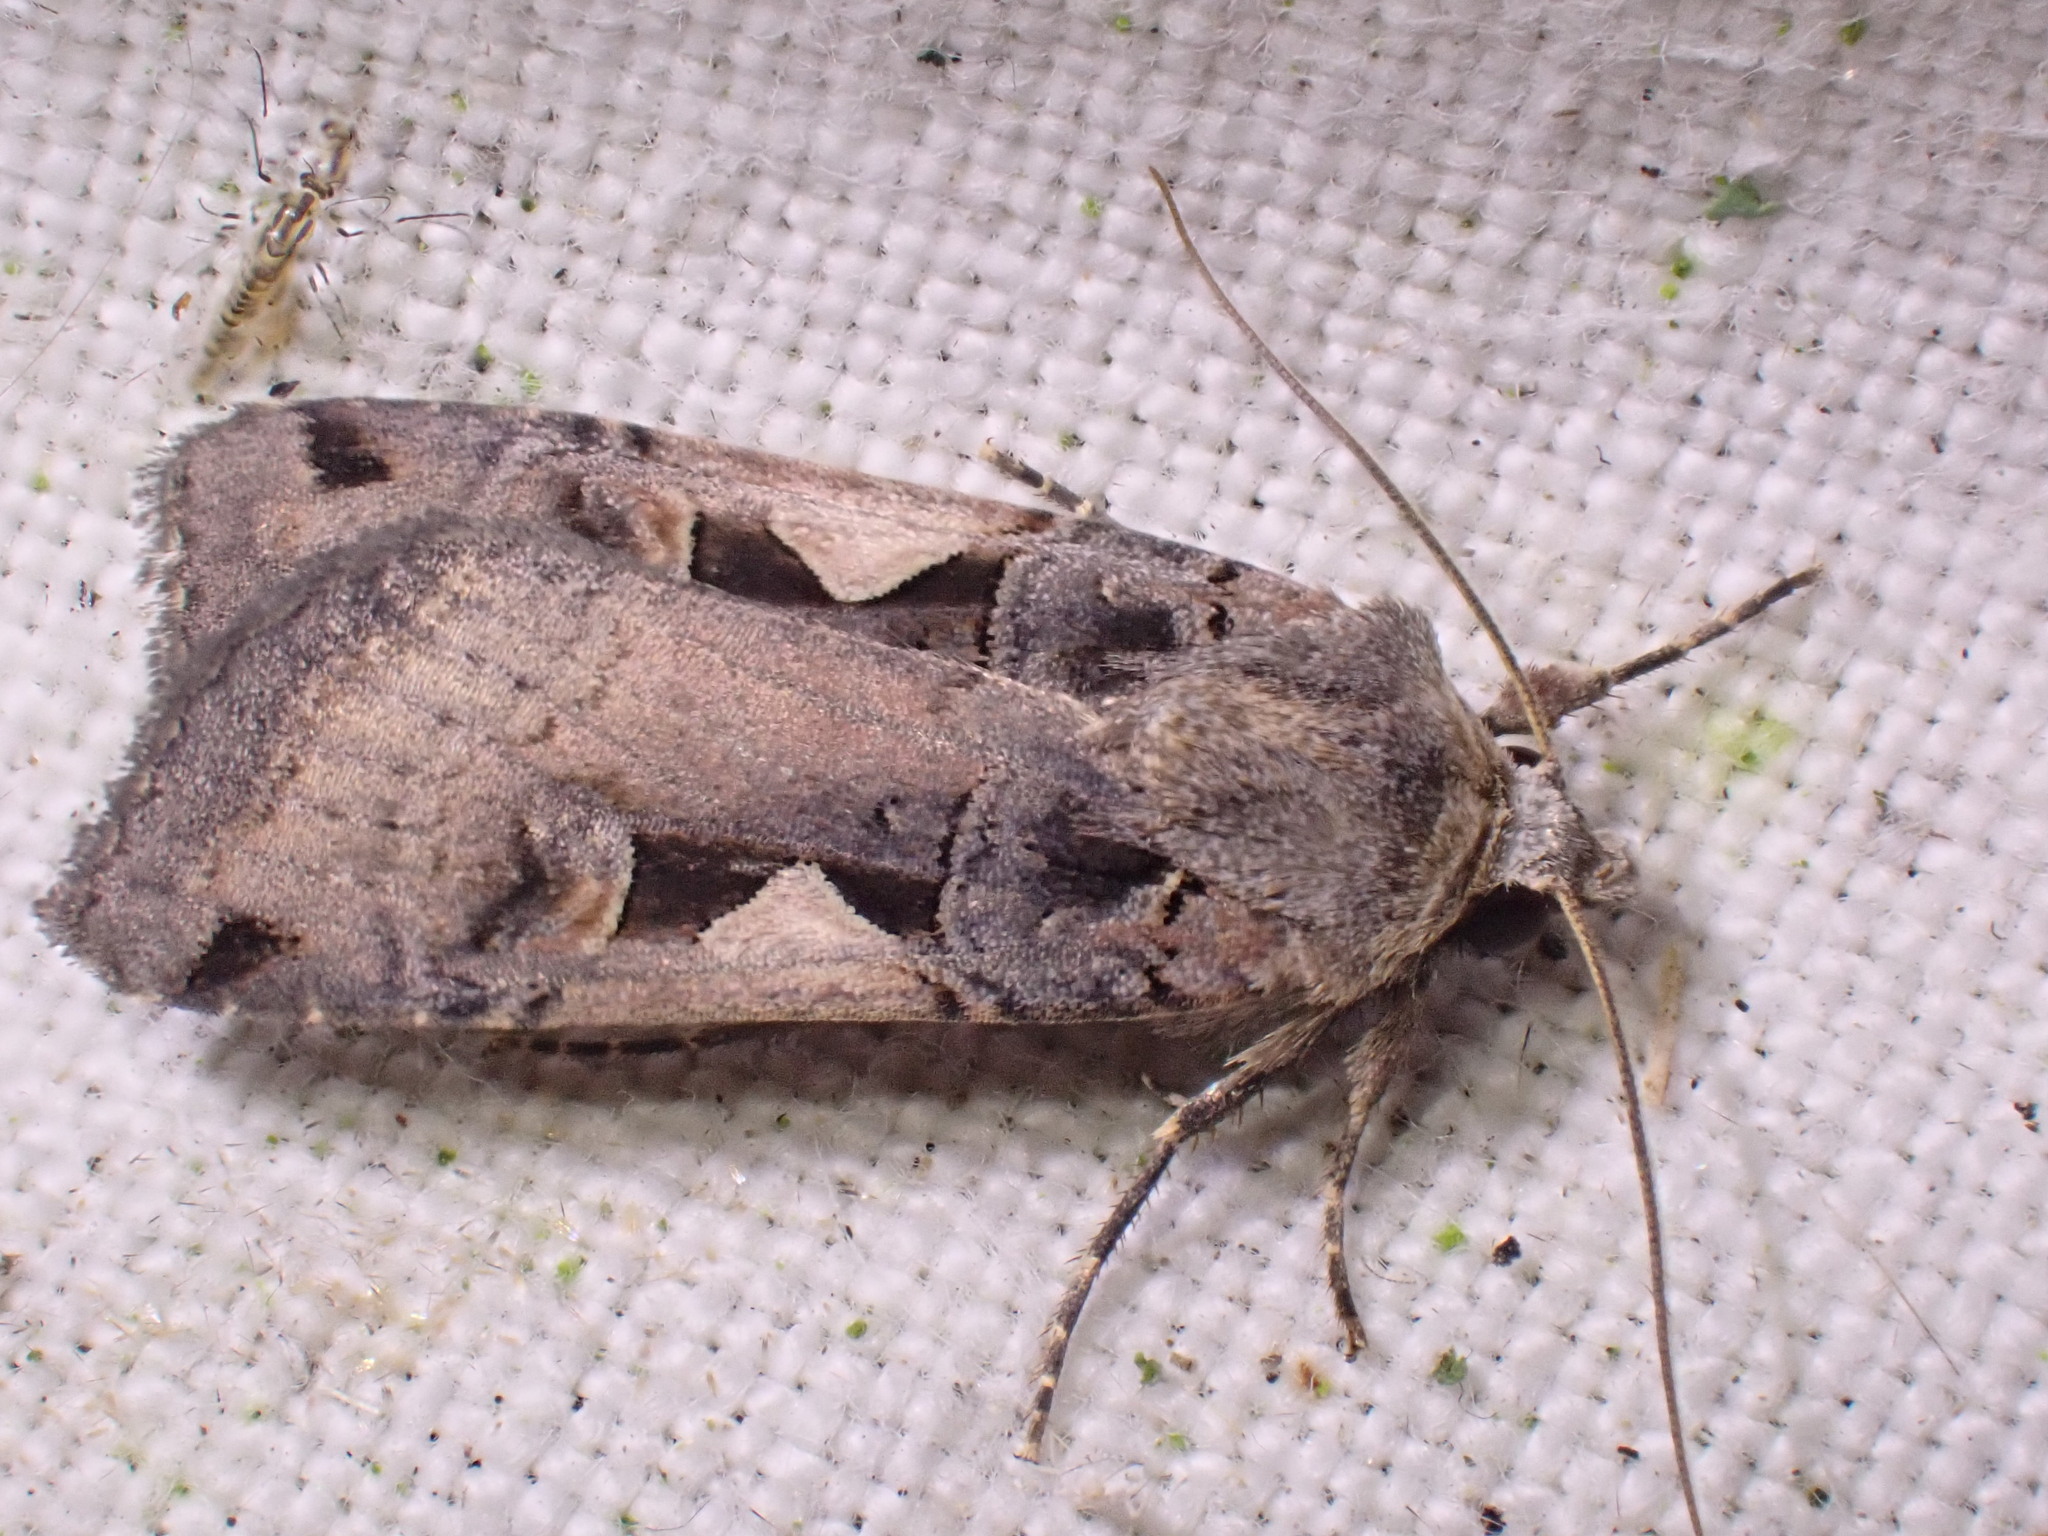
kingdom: Animalia
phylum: Arthropoda
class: Insecta
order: Lepidoptera
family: Noctuidae
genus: Xestia
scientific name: Xestia c-nigrum
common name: Setaceous hebrew character
